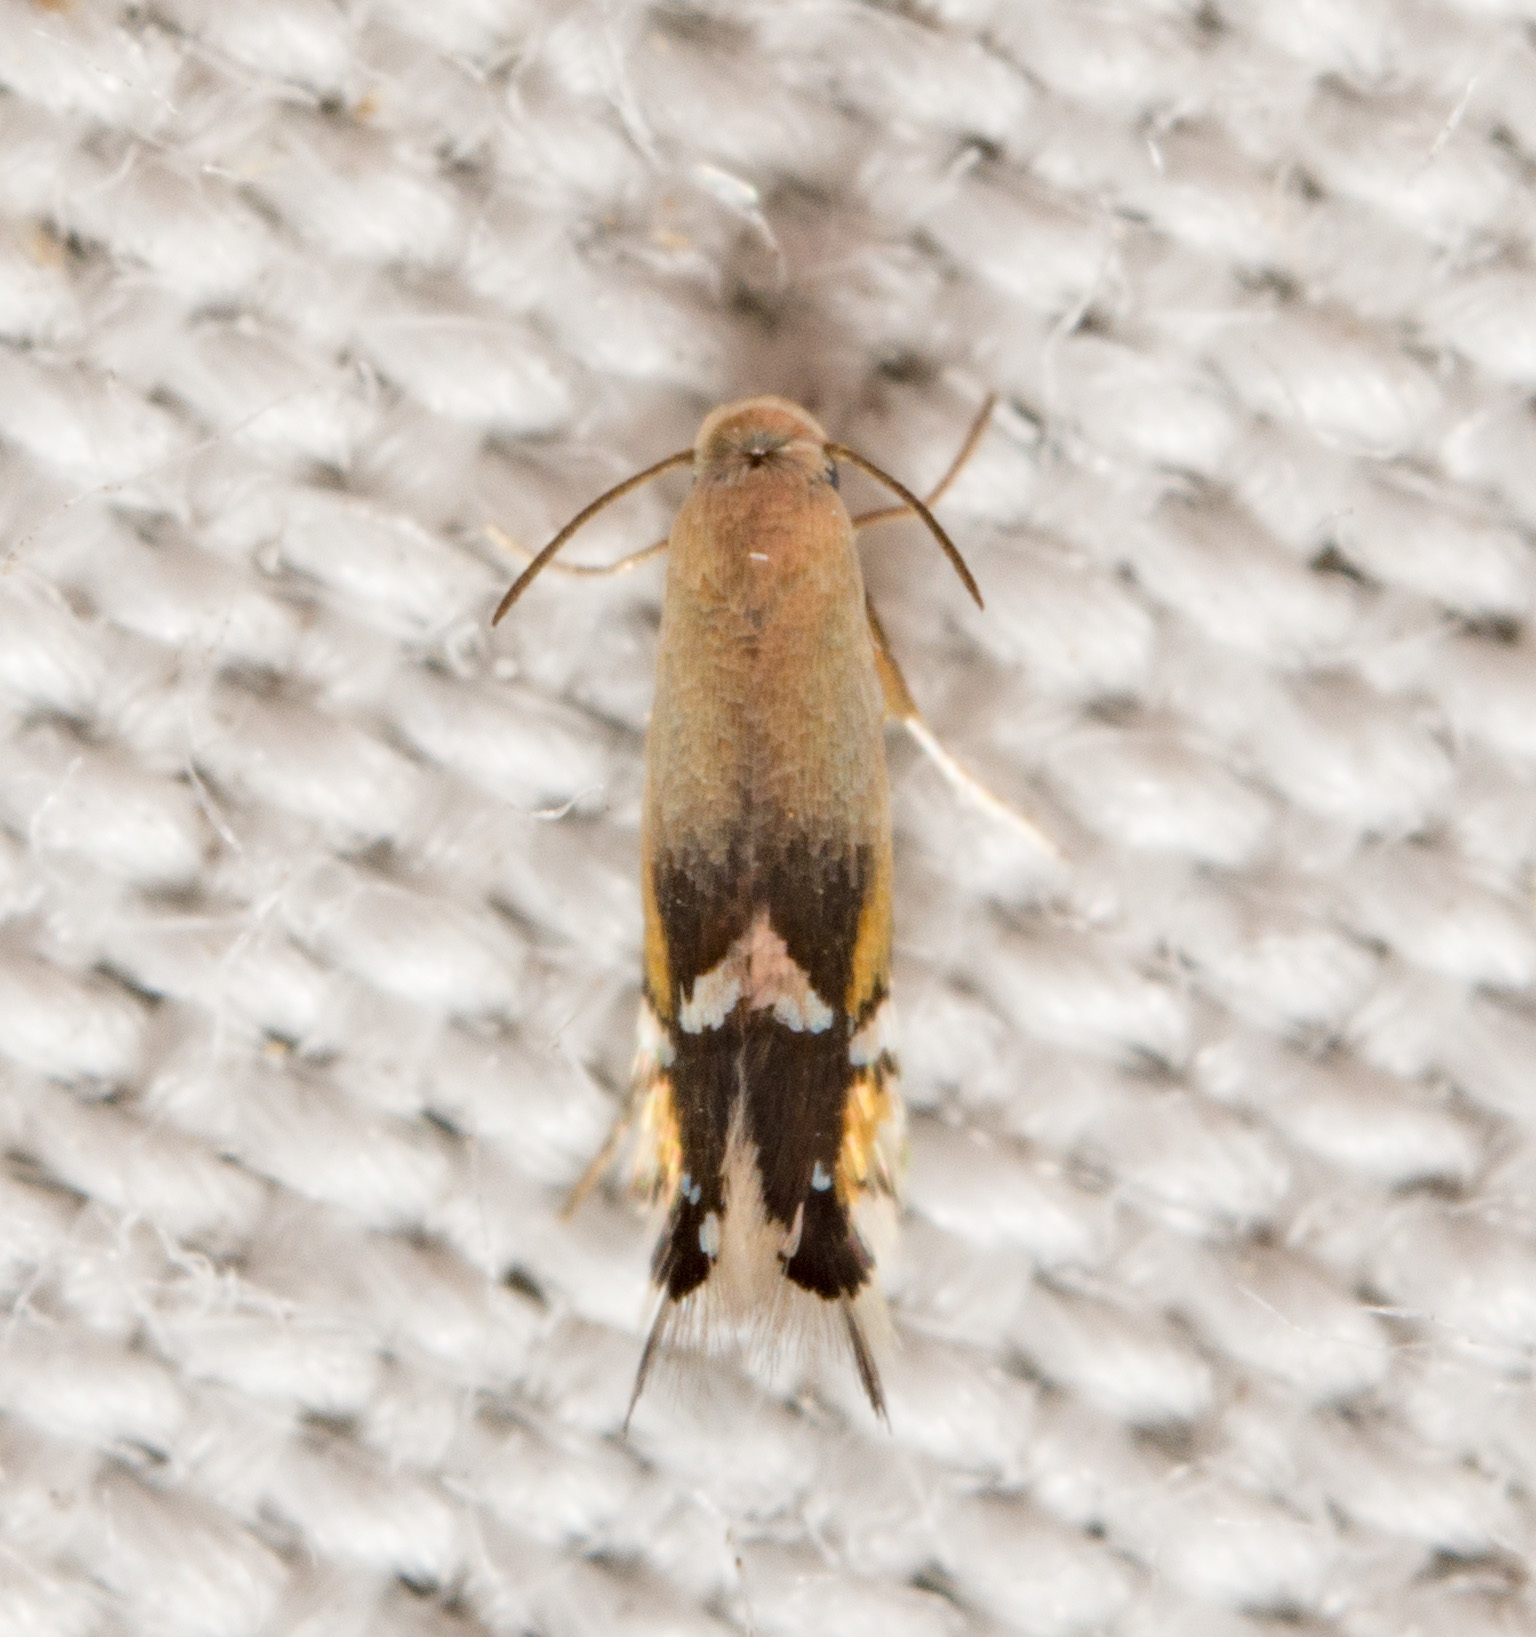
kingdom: Animalia
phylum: Arthropoda
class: Insecta
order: Lepidoptera
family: Heliozelidae
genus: Coptodisca
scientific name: Coptodisca
